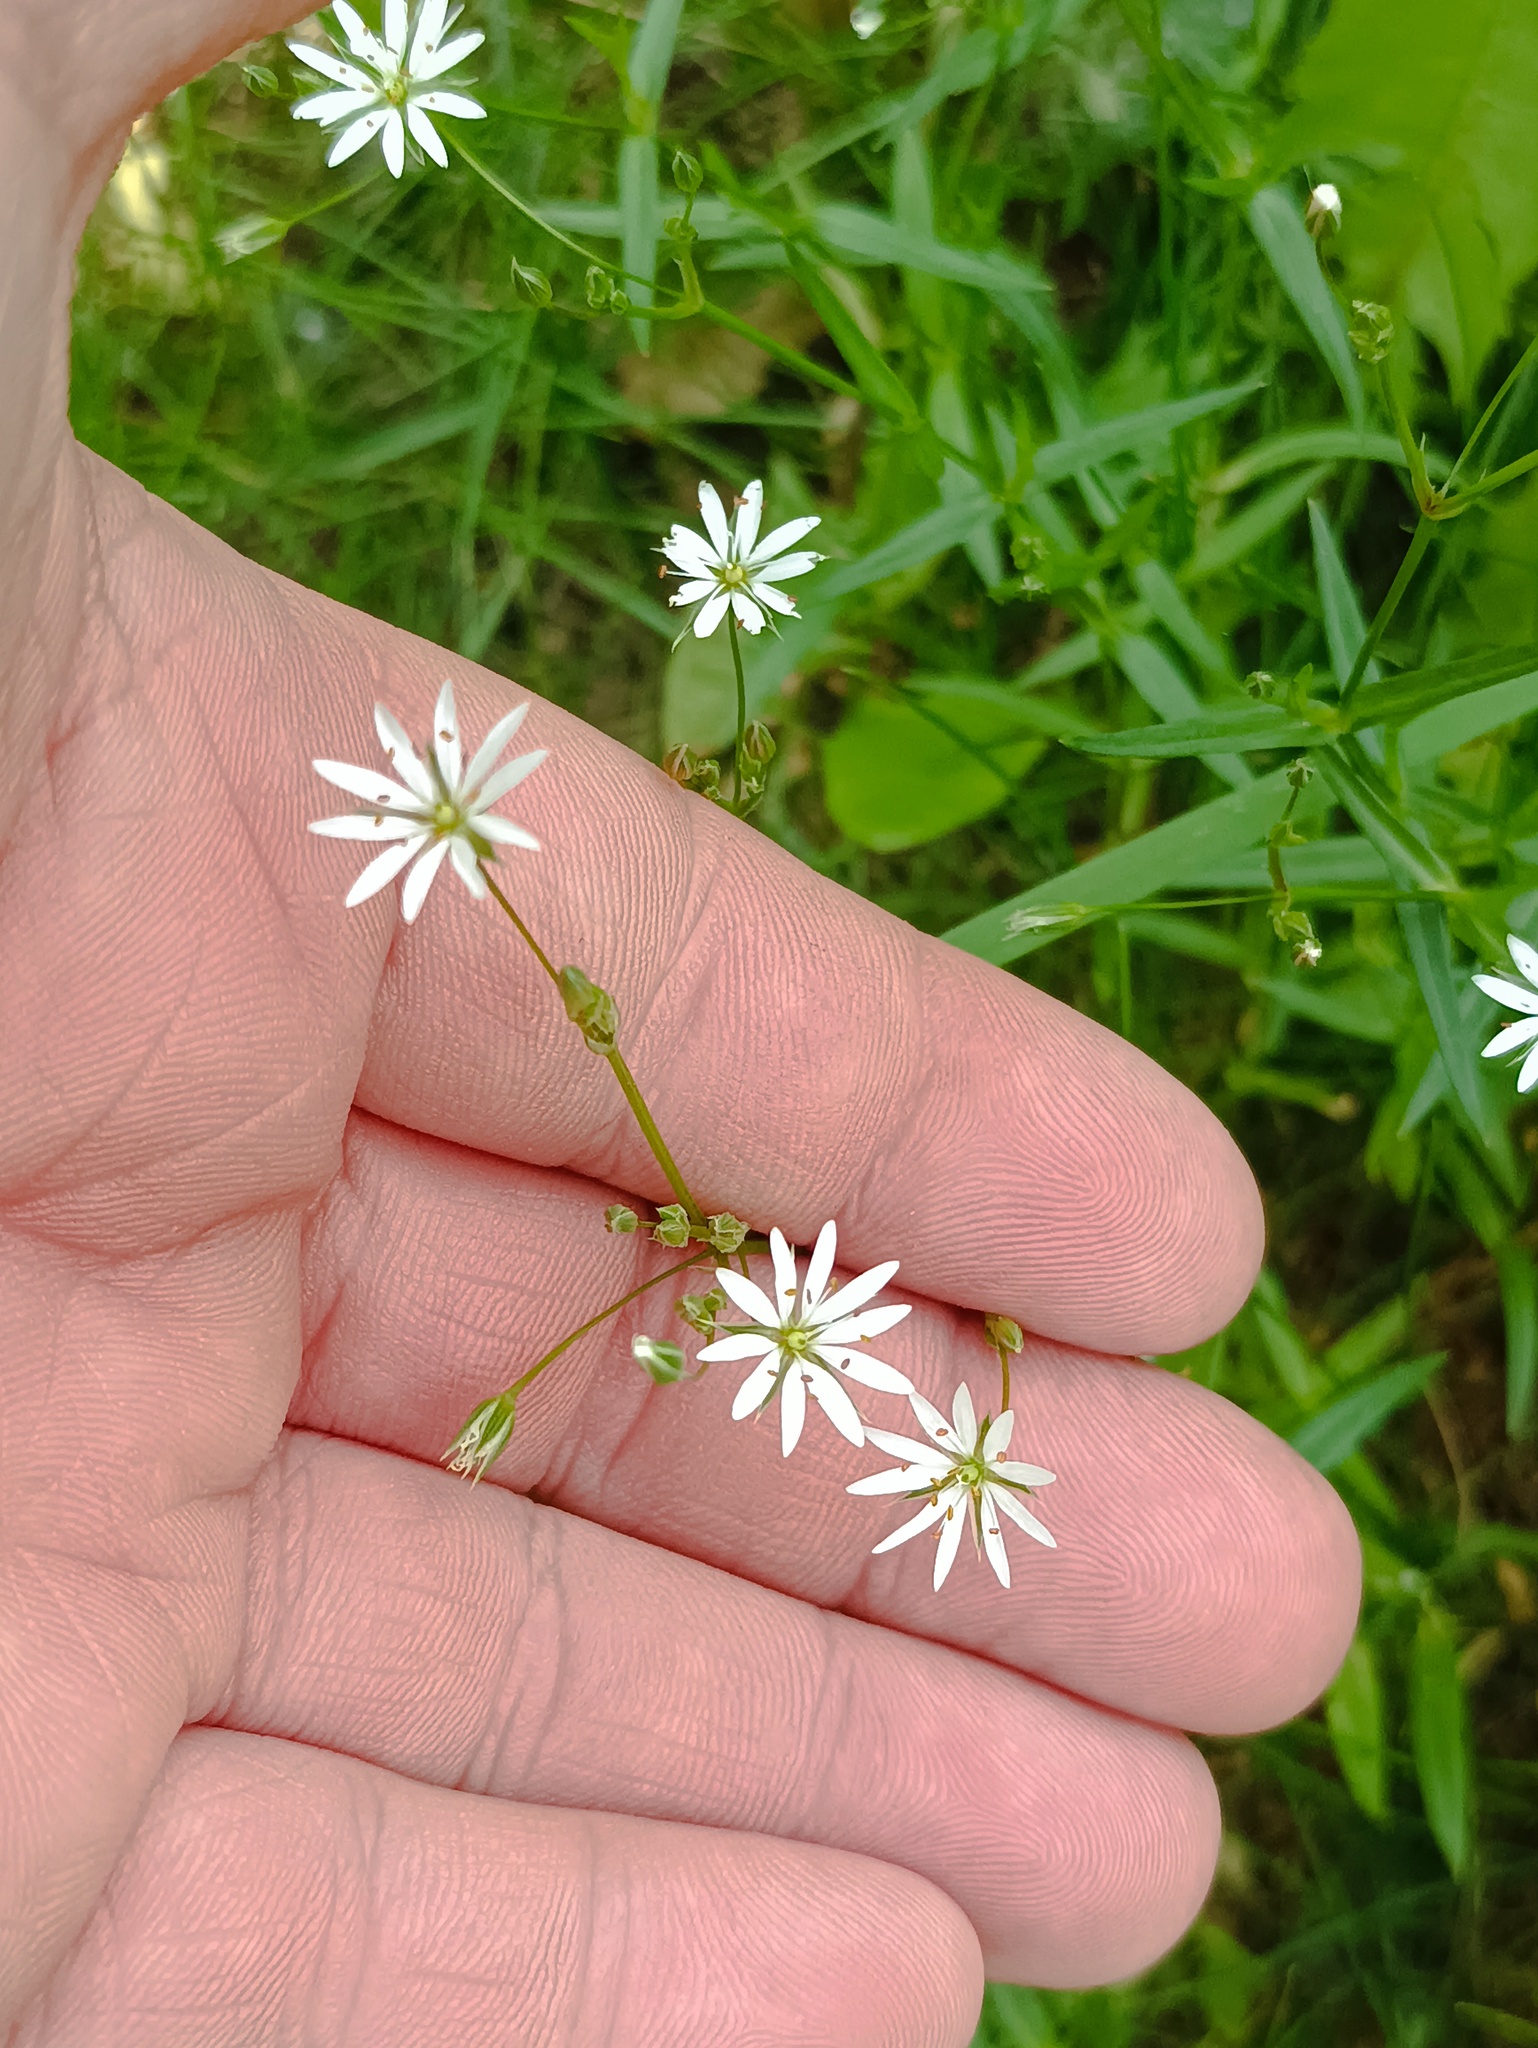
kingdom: Plantae
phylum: Tracheophyta
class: Magnoliopsida
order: Caryophyllales
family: Caryophyllaceae
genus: Stellaria
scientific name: Stellaria graminea
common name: Grass-like starwort
